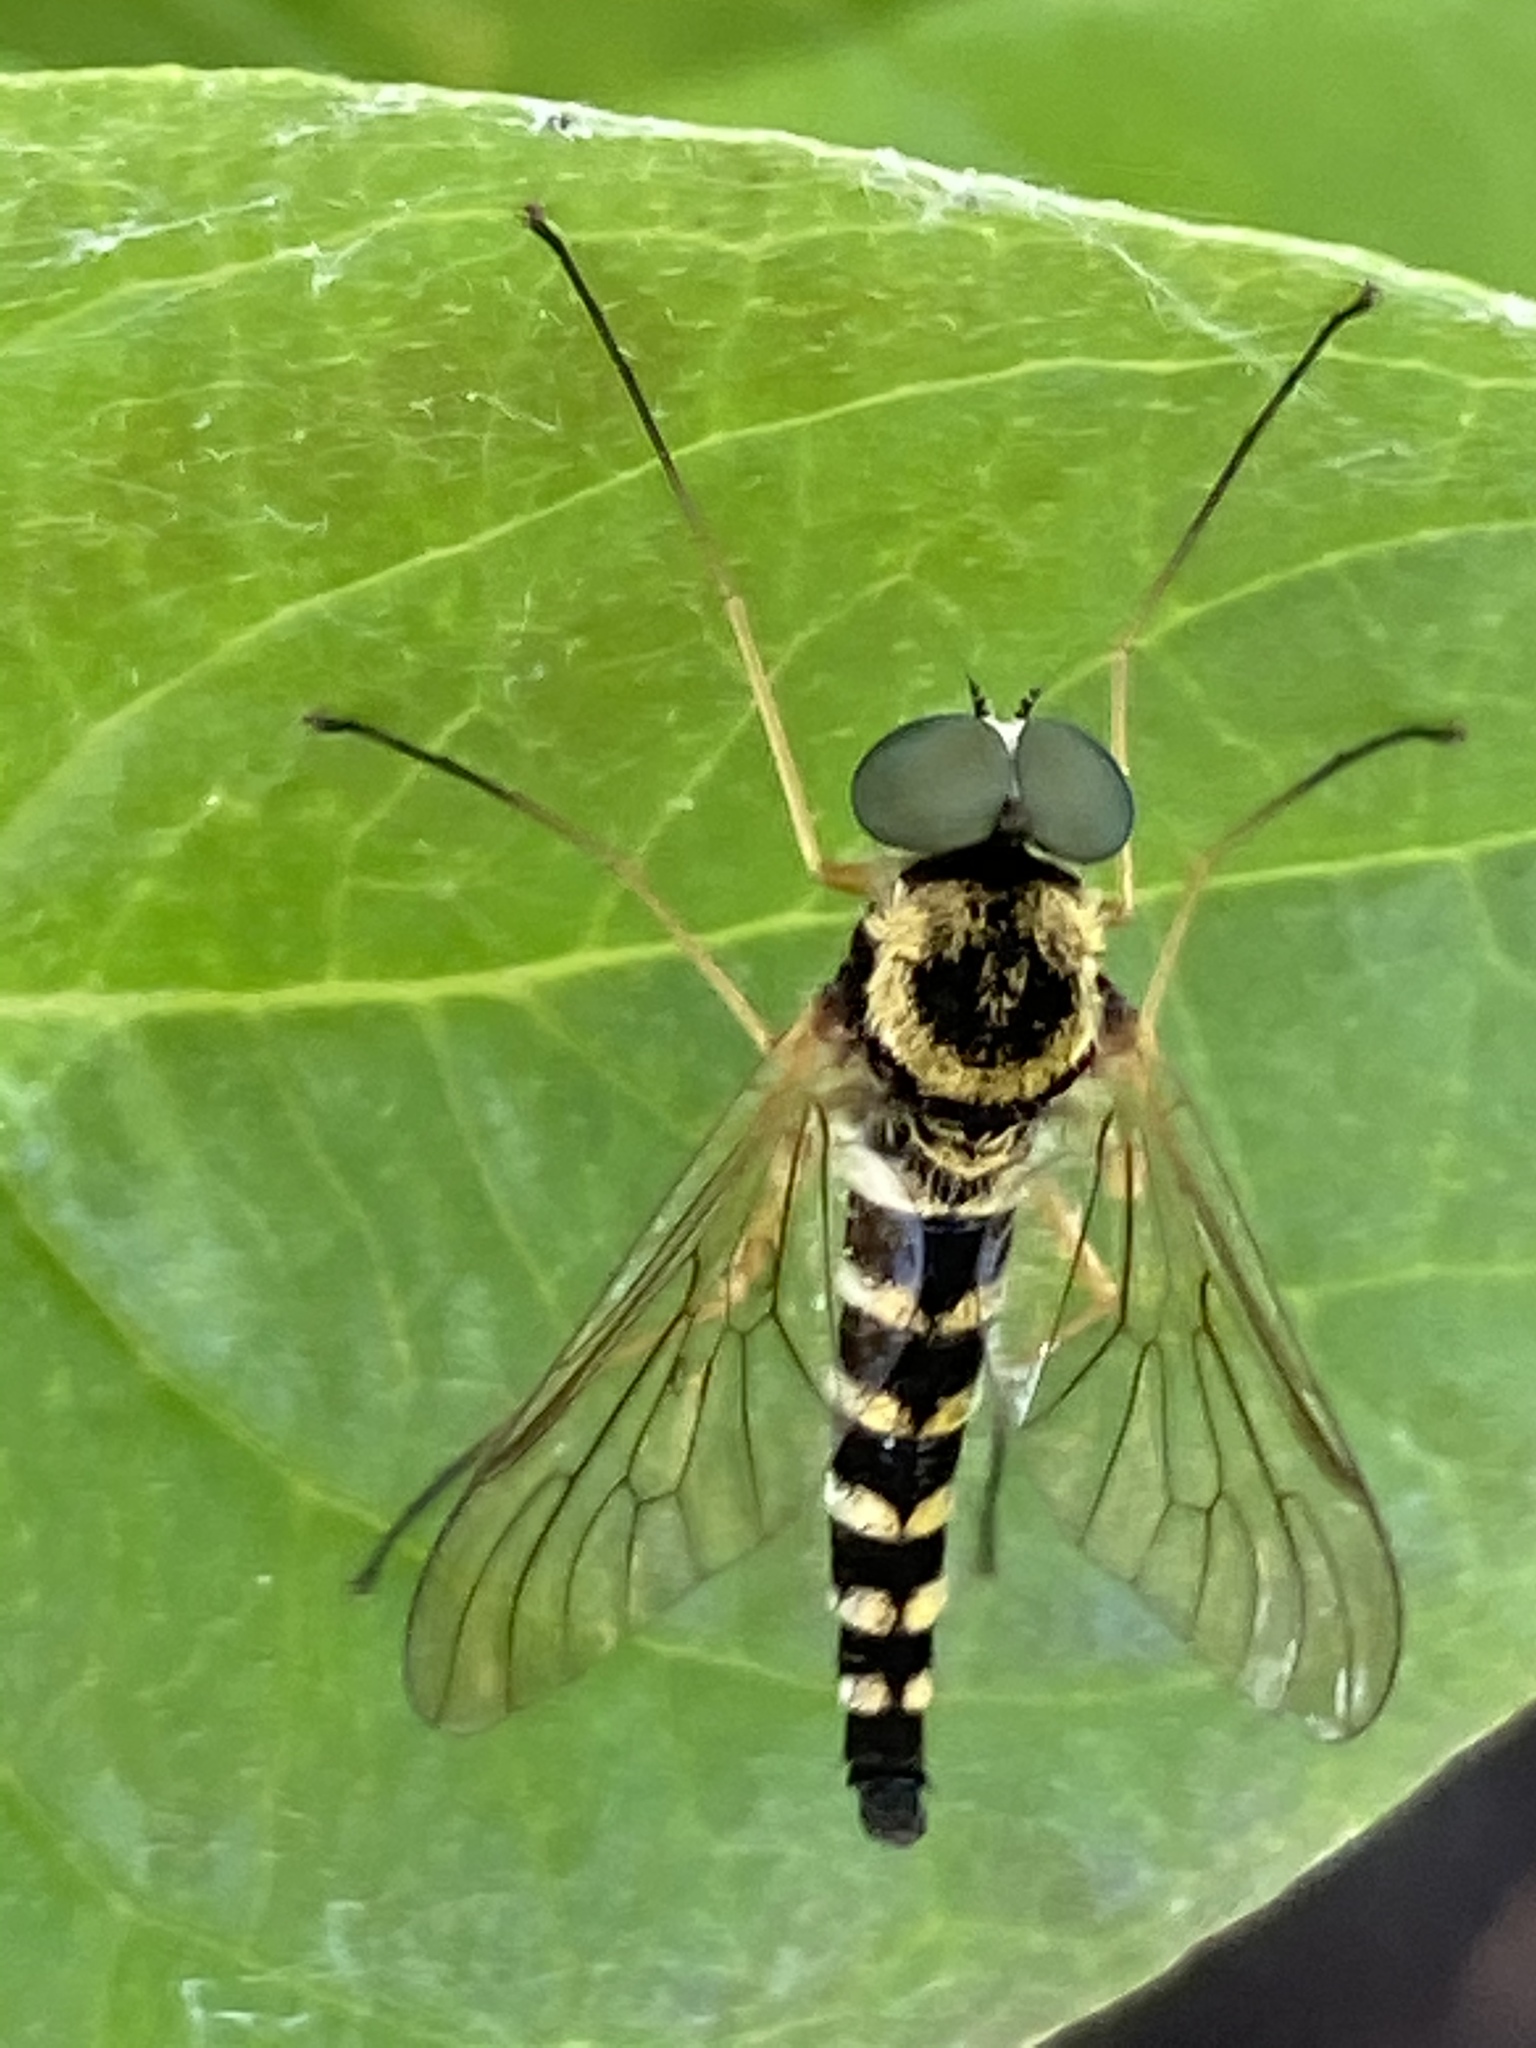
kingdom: Animalia
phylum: Arthropoda
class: Insecta
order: Diptera
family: Rhagionidae
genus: Chrysopilus
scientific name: Chrysopilus ornatus
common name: Ornate snipe fly
